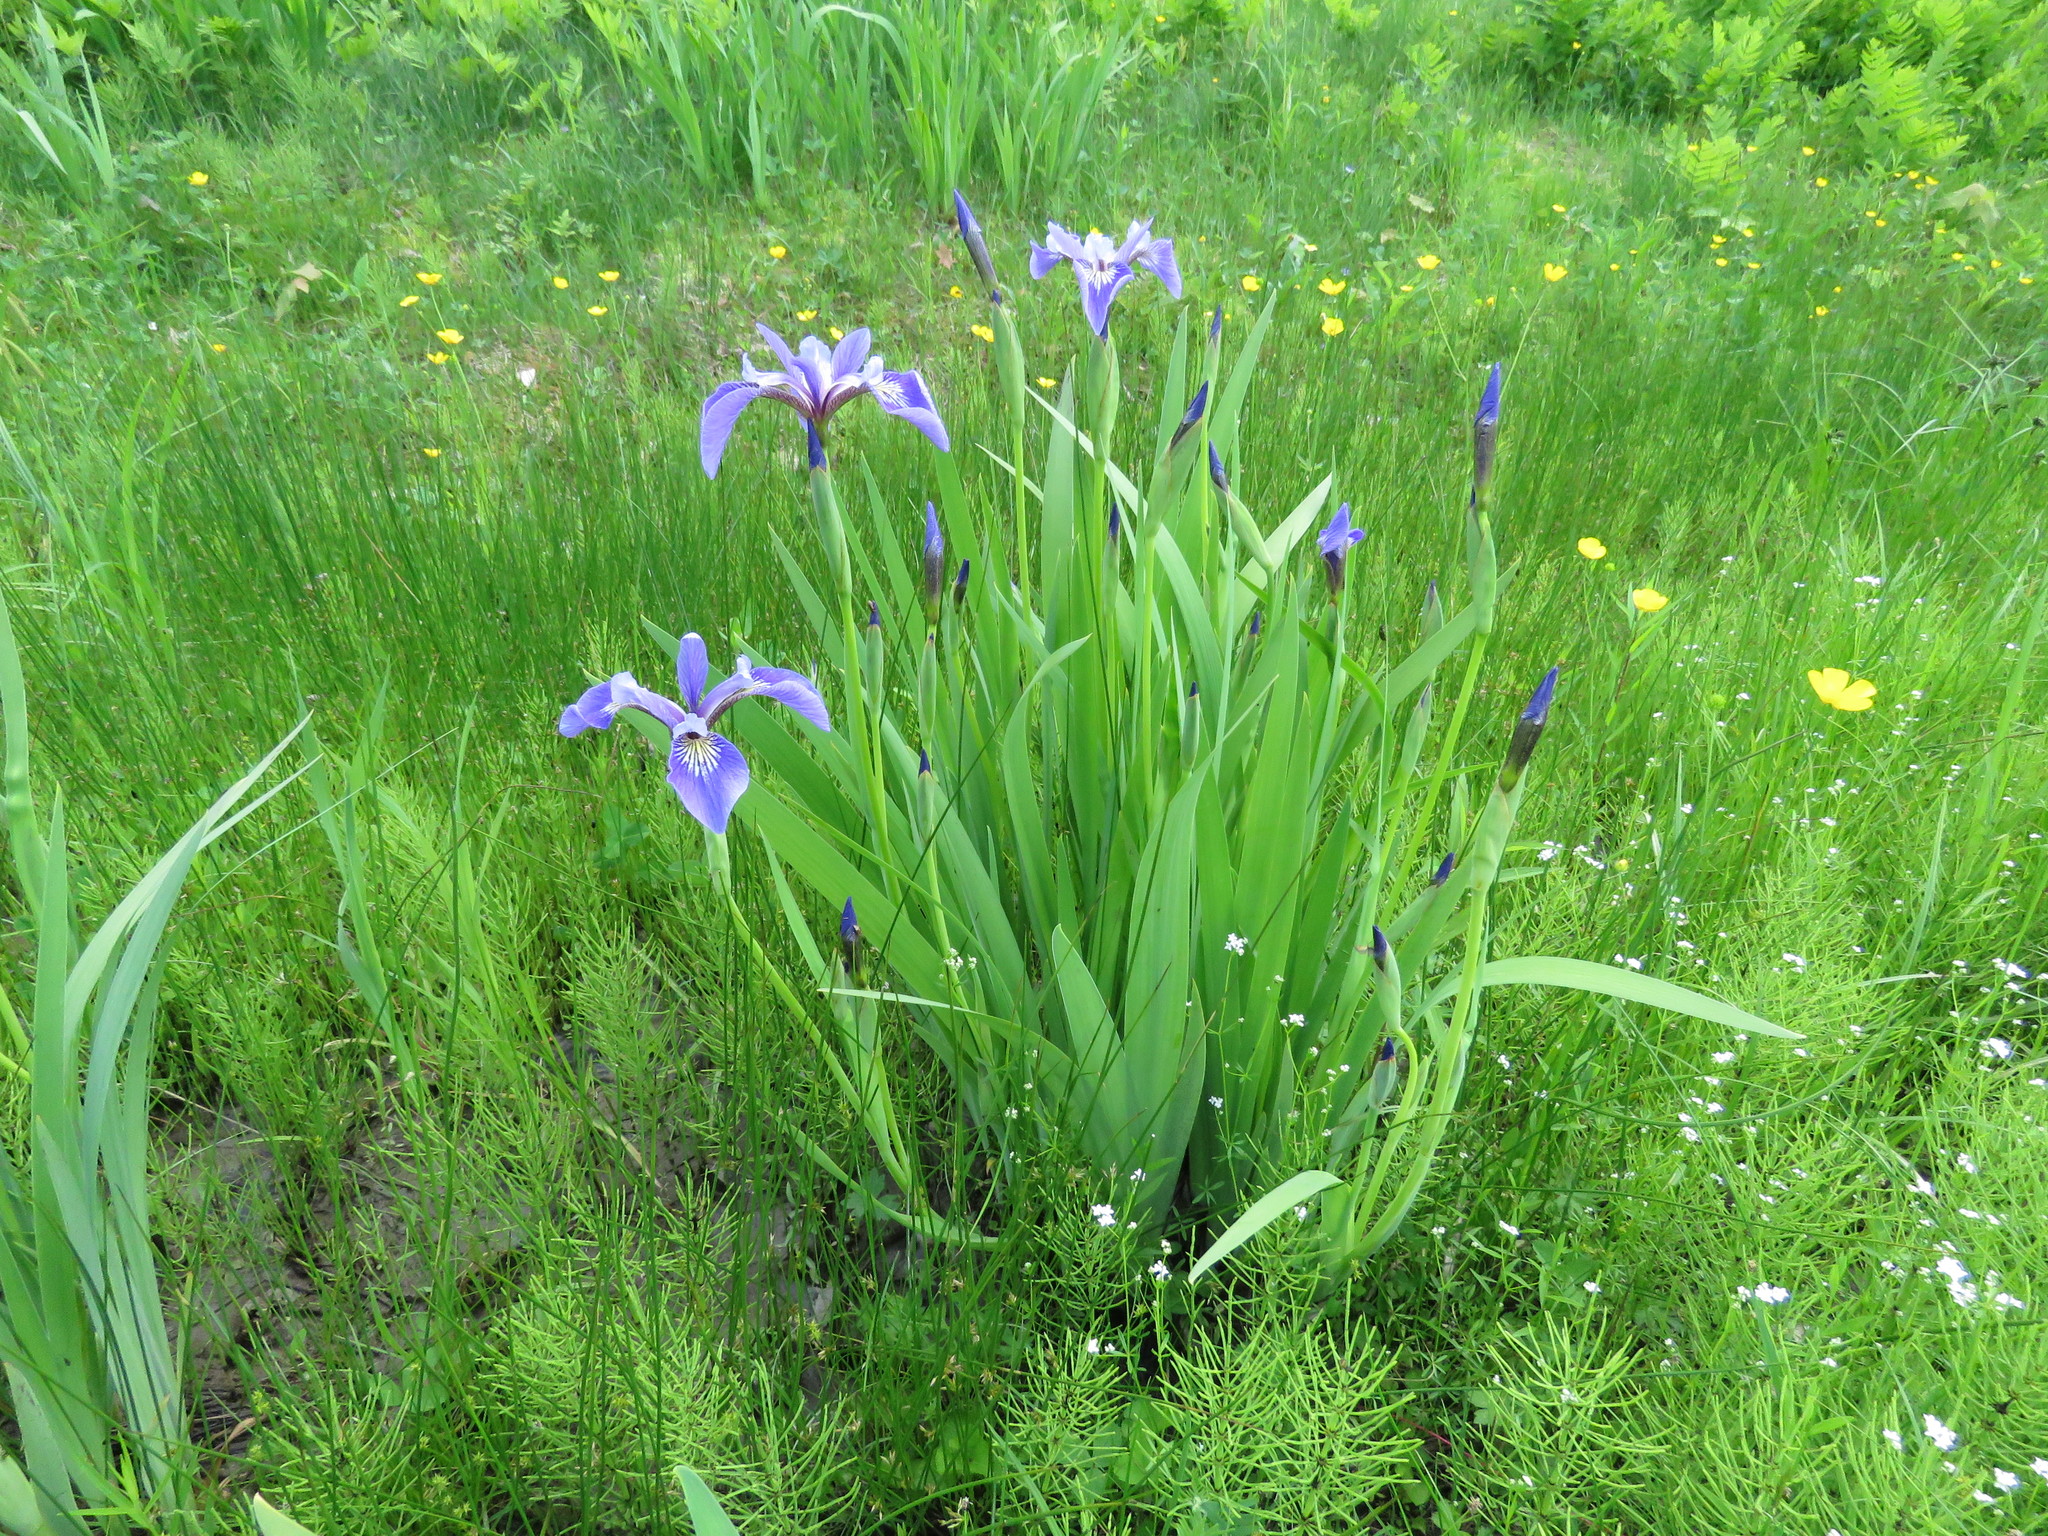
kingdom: Plantae
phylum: Tracheophyta
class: Liliopsida
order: Asparagales
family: Iridaceae
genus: Iris
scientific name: Iris versicolor
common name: Purple iris
